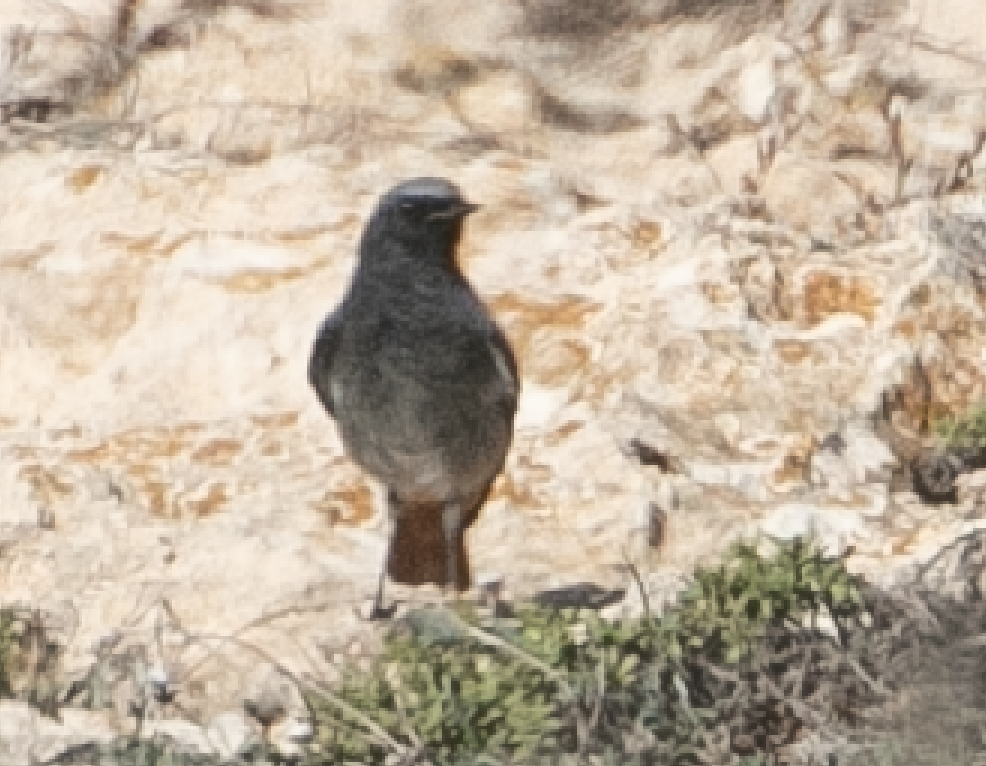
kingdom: Animalia
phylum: Chordata
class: Aves
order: Passeriformes
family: Muscicapidae
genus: Phoenicurus
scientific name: Phoenicurus ochruros
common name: Black redstart
